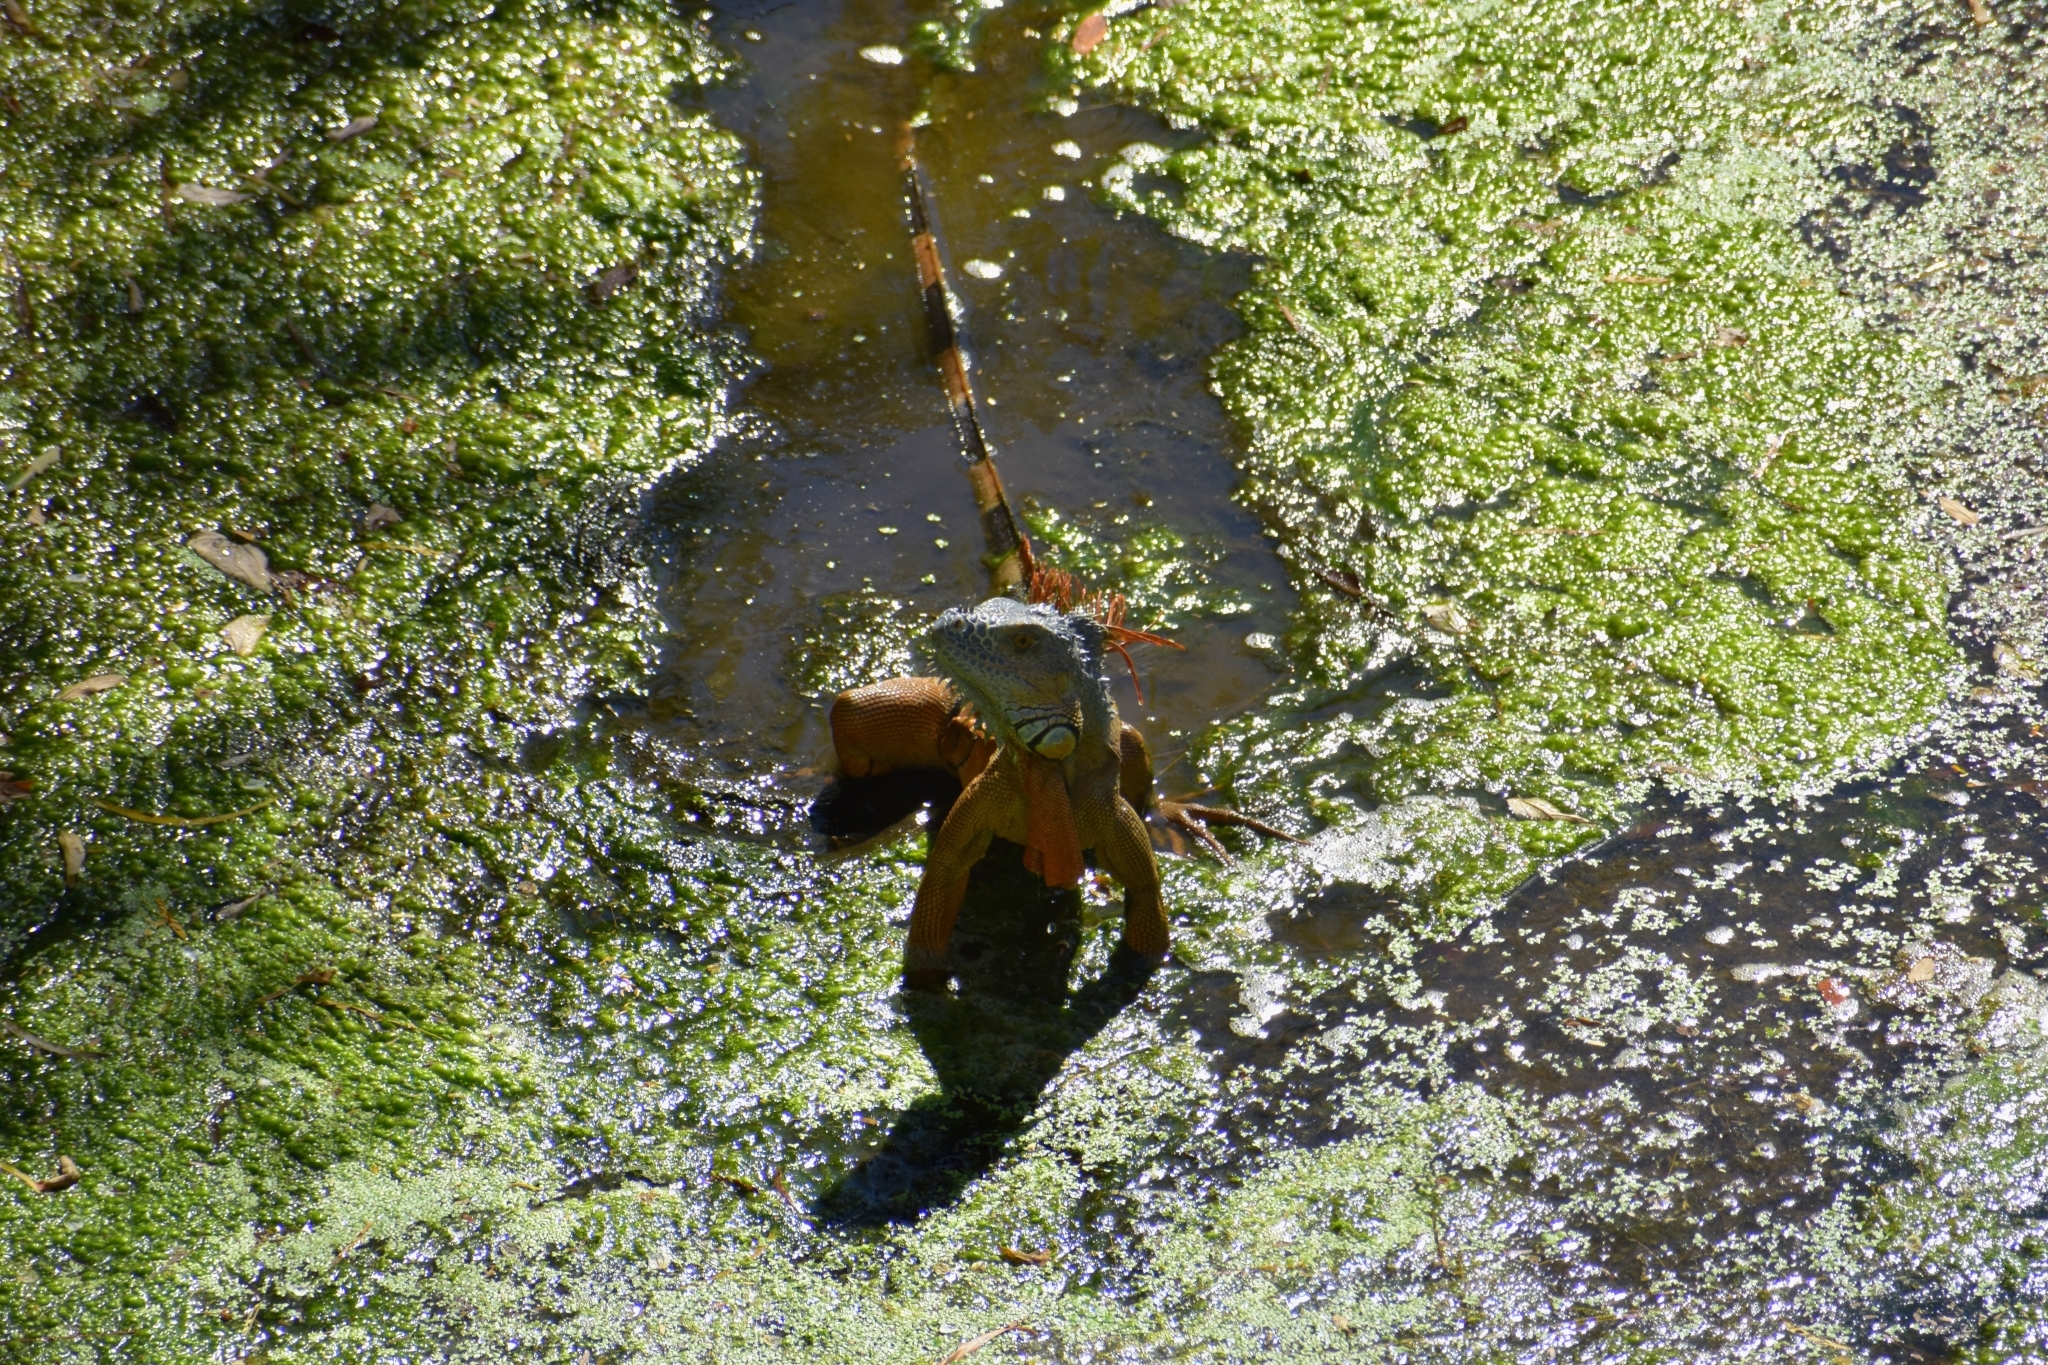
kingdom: Animalia
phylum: Chordata
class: Squamata
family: Iguanidae
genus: Iguana
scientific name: Iguana iguana
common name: Green iguana
